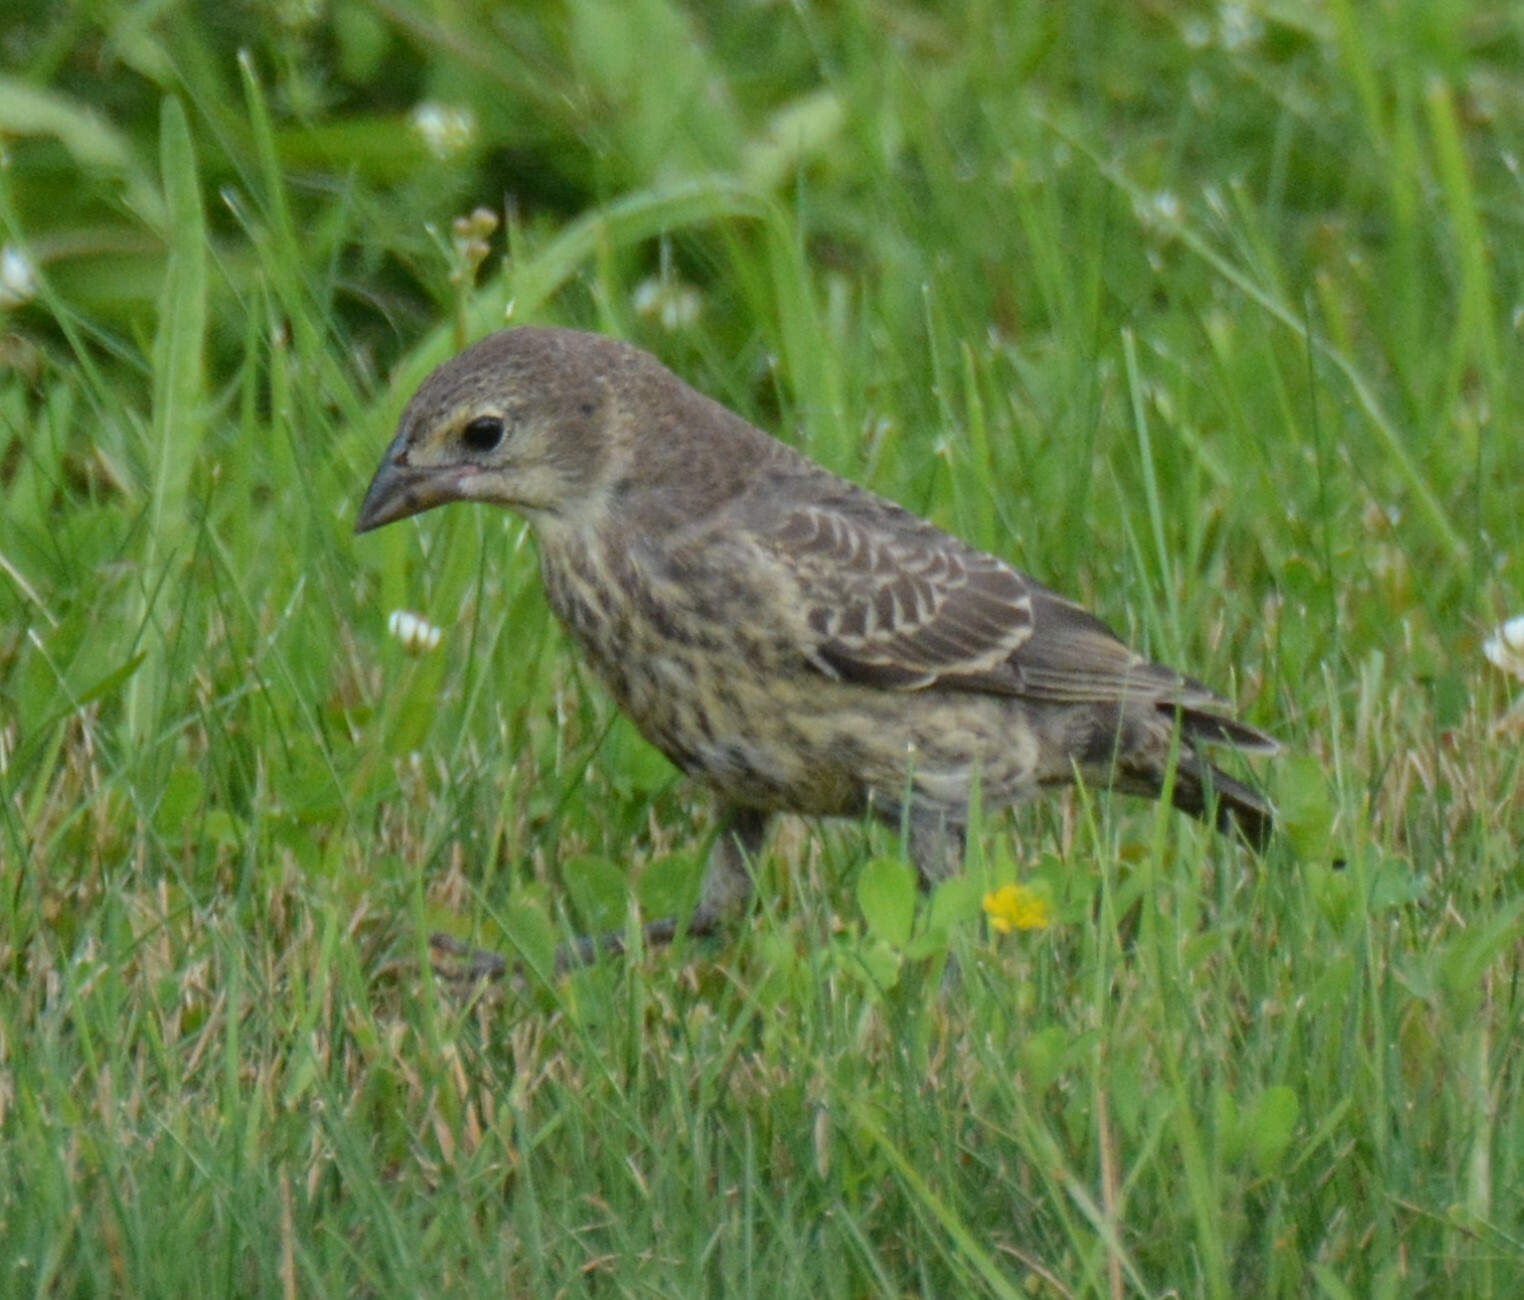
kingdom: Animalia
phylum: Chordata
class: Aves
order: Passeriformes
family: Icteridae
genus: Molothrus
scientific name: Molothrus ater
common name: Brown-headed cowbird
